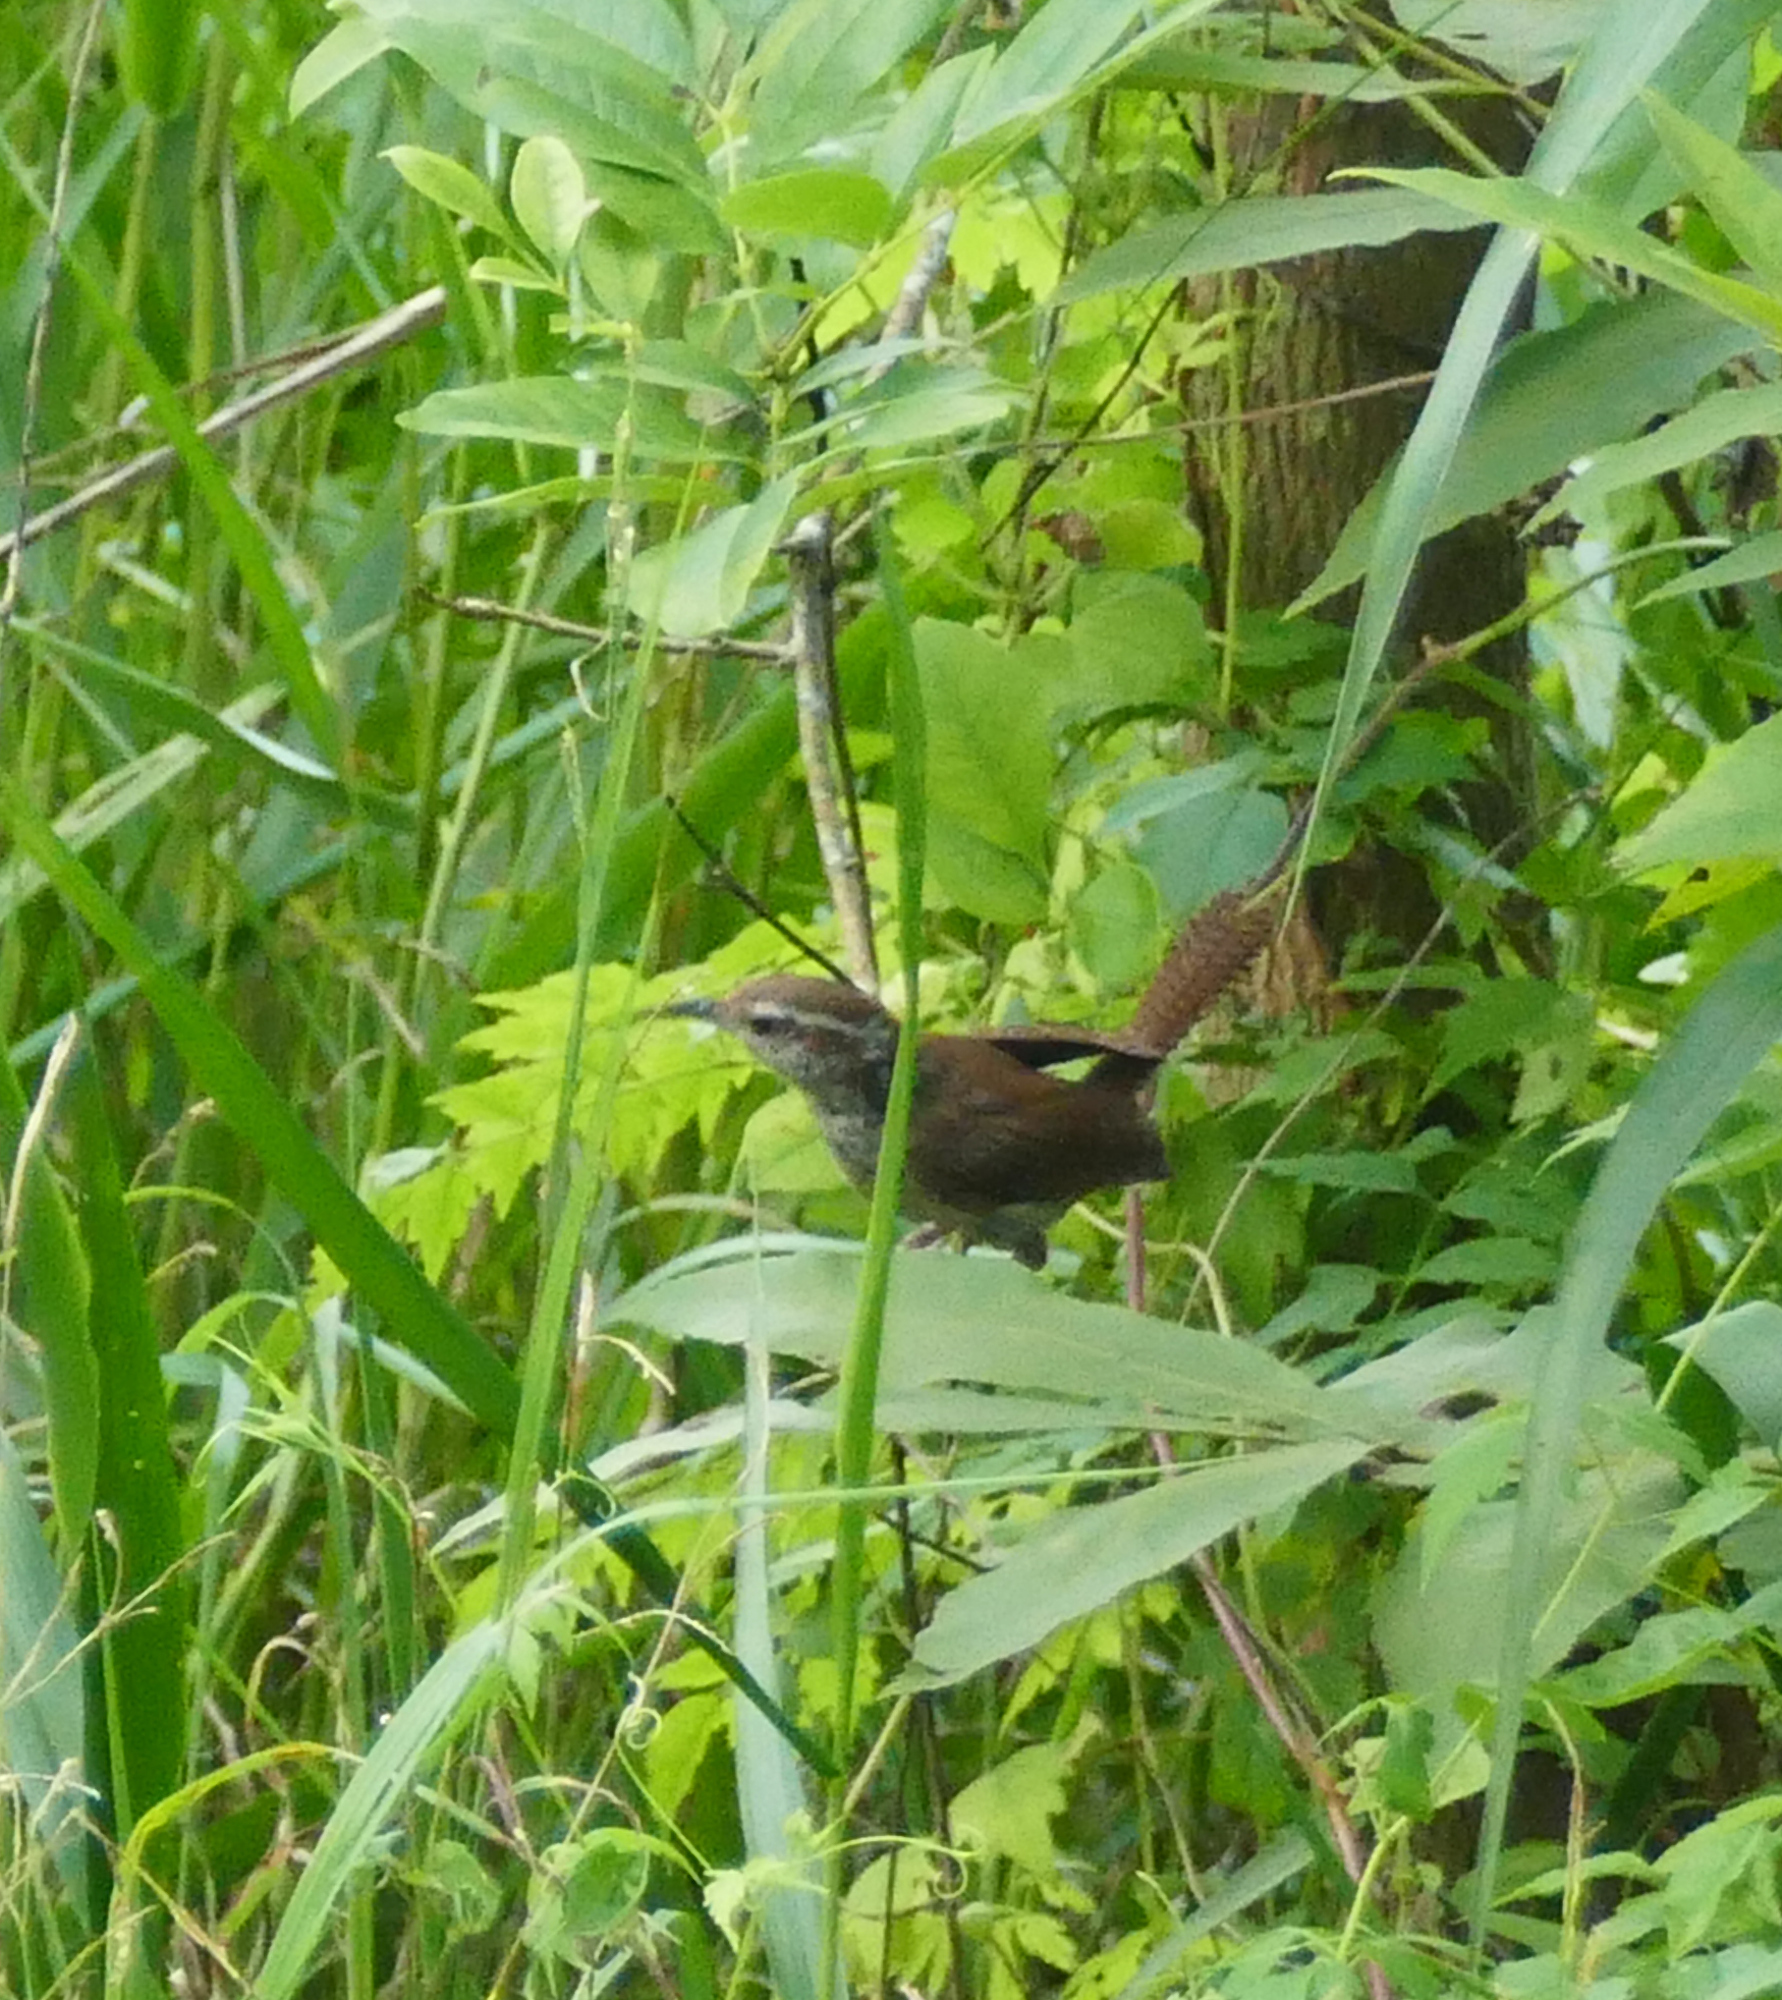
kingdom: Animalia
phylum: Chordata
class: Aves
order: Passeriformes
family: Troglodytidae
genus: Thryothorus
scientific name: Thryothorus ludovicianus
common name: Carolina wren
